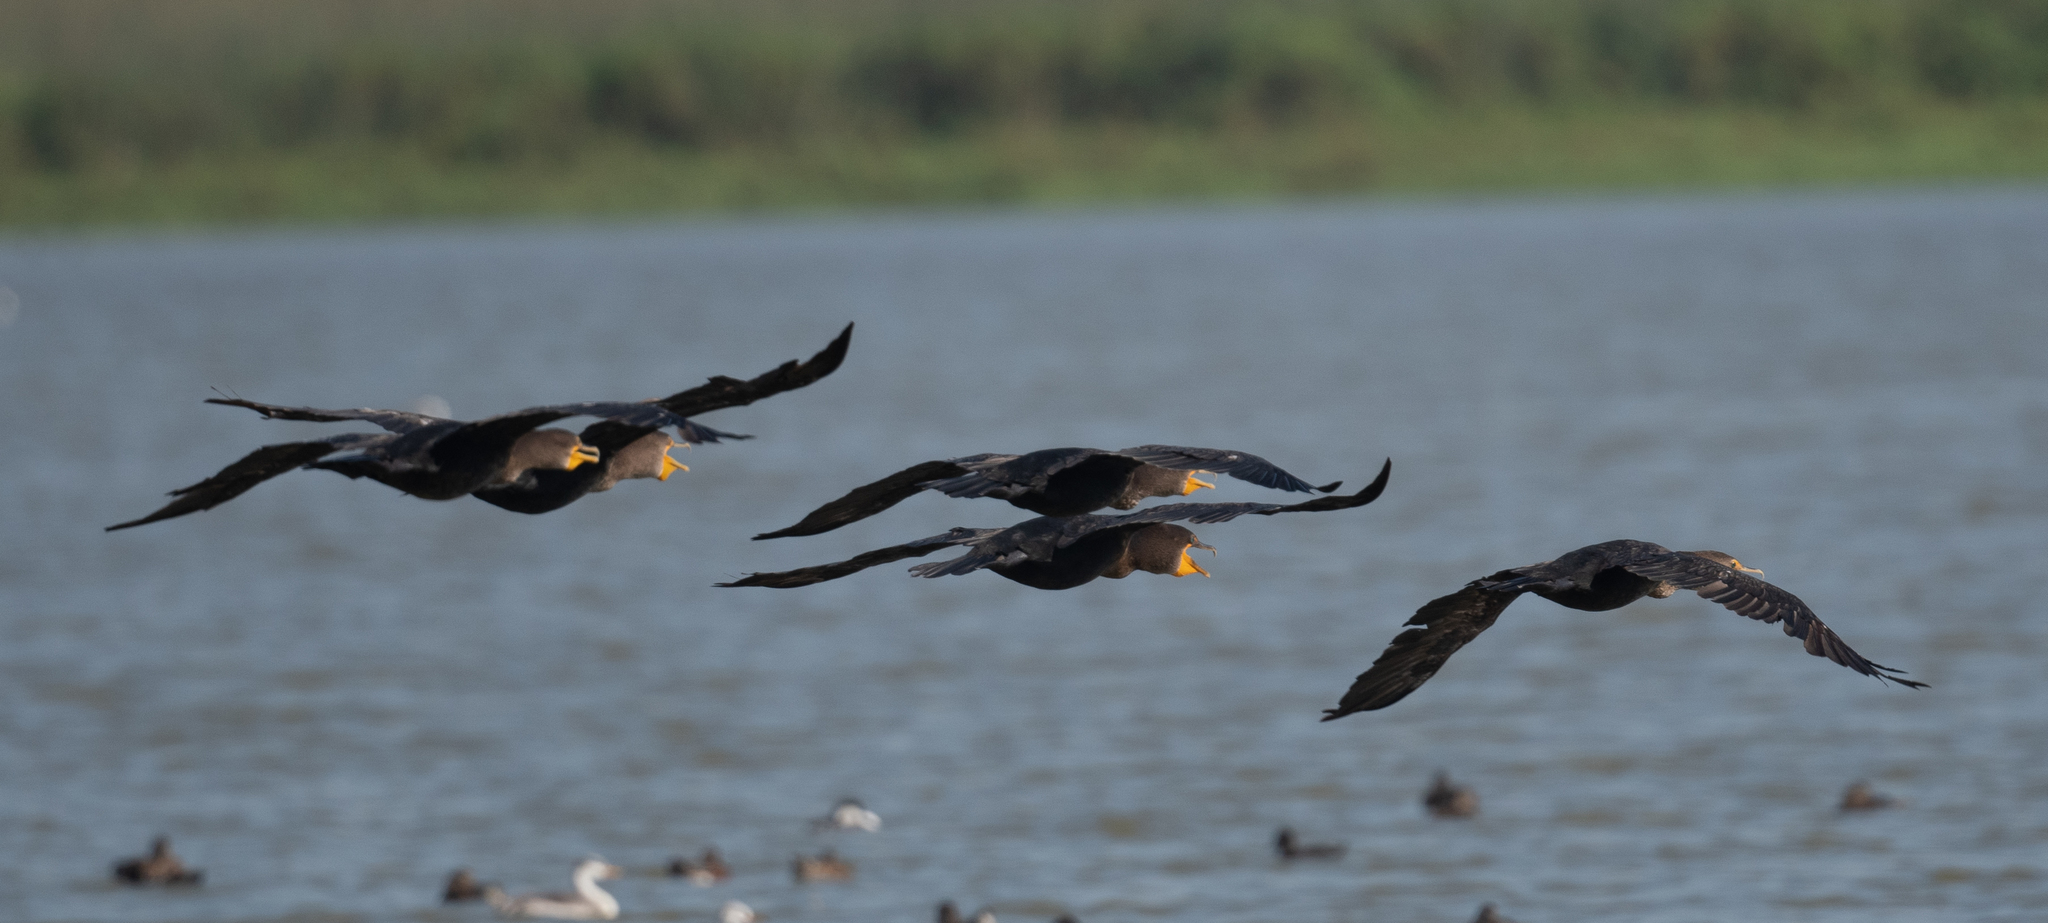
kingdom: Animalia
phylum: Chordata
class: Aves
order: Suliformes
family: Phalacrocoracidae
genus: Phalacrocorax
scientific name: Phalacrocorax auritus
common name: Double-crested cormorant
